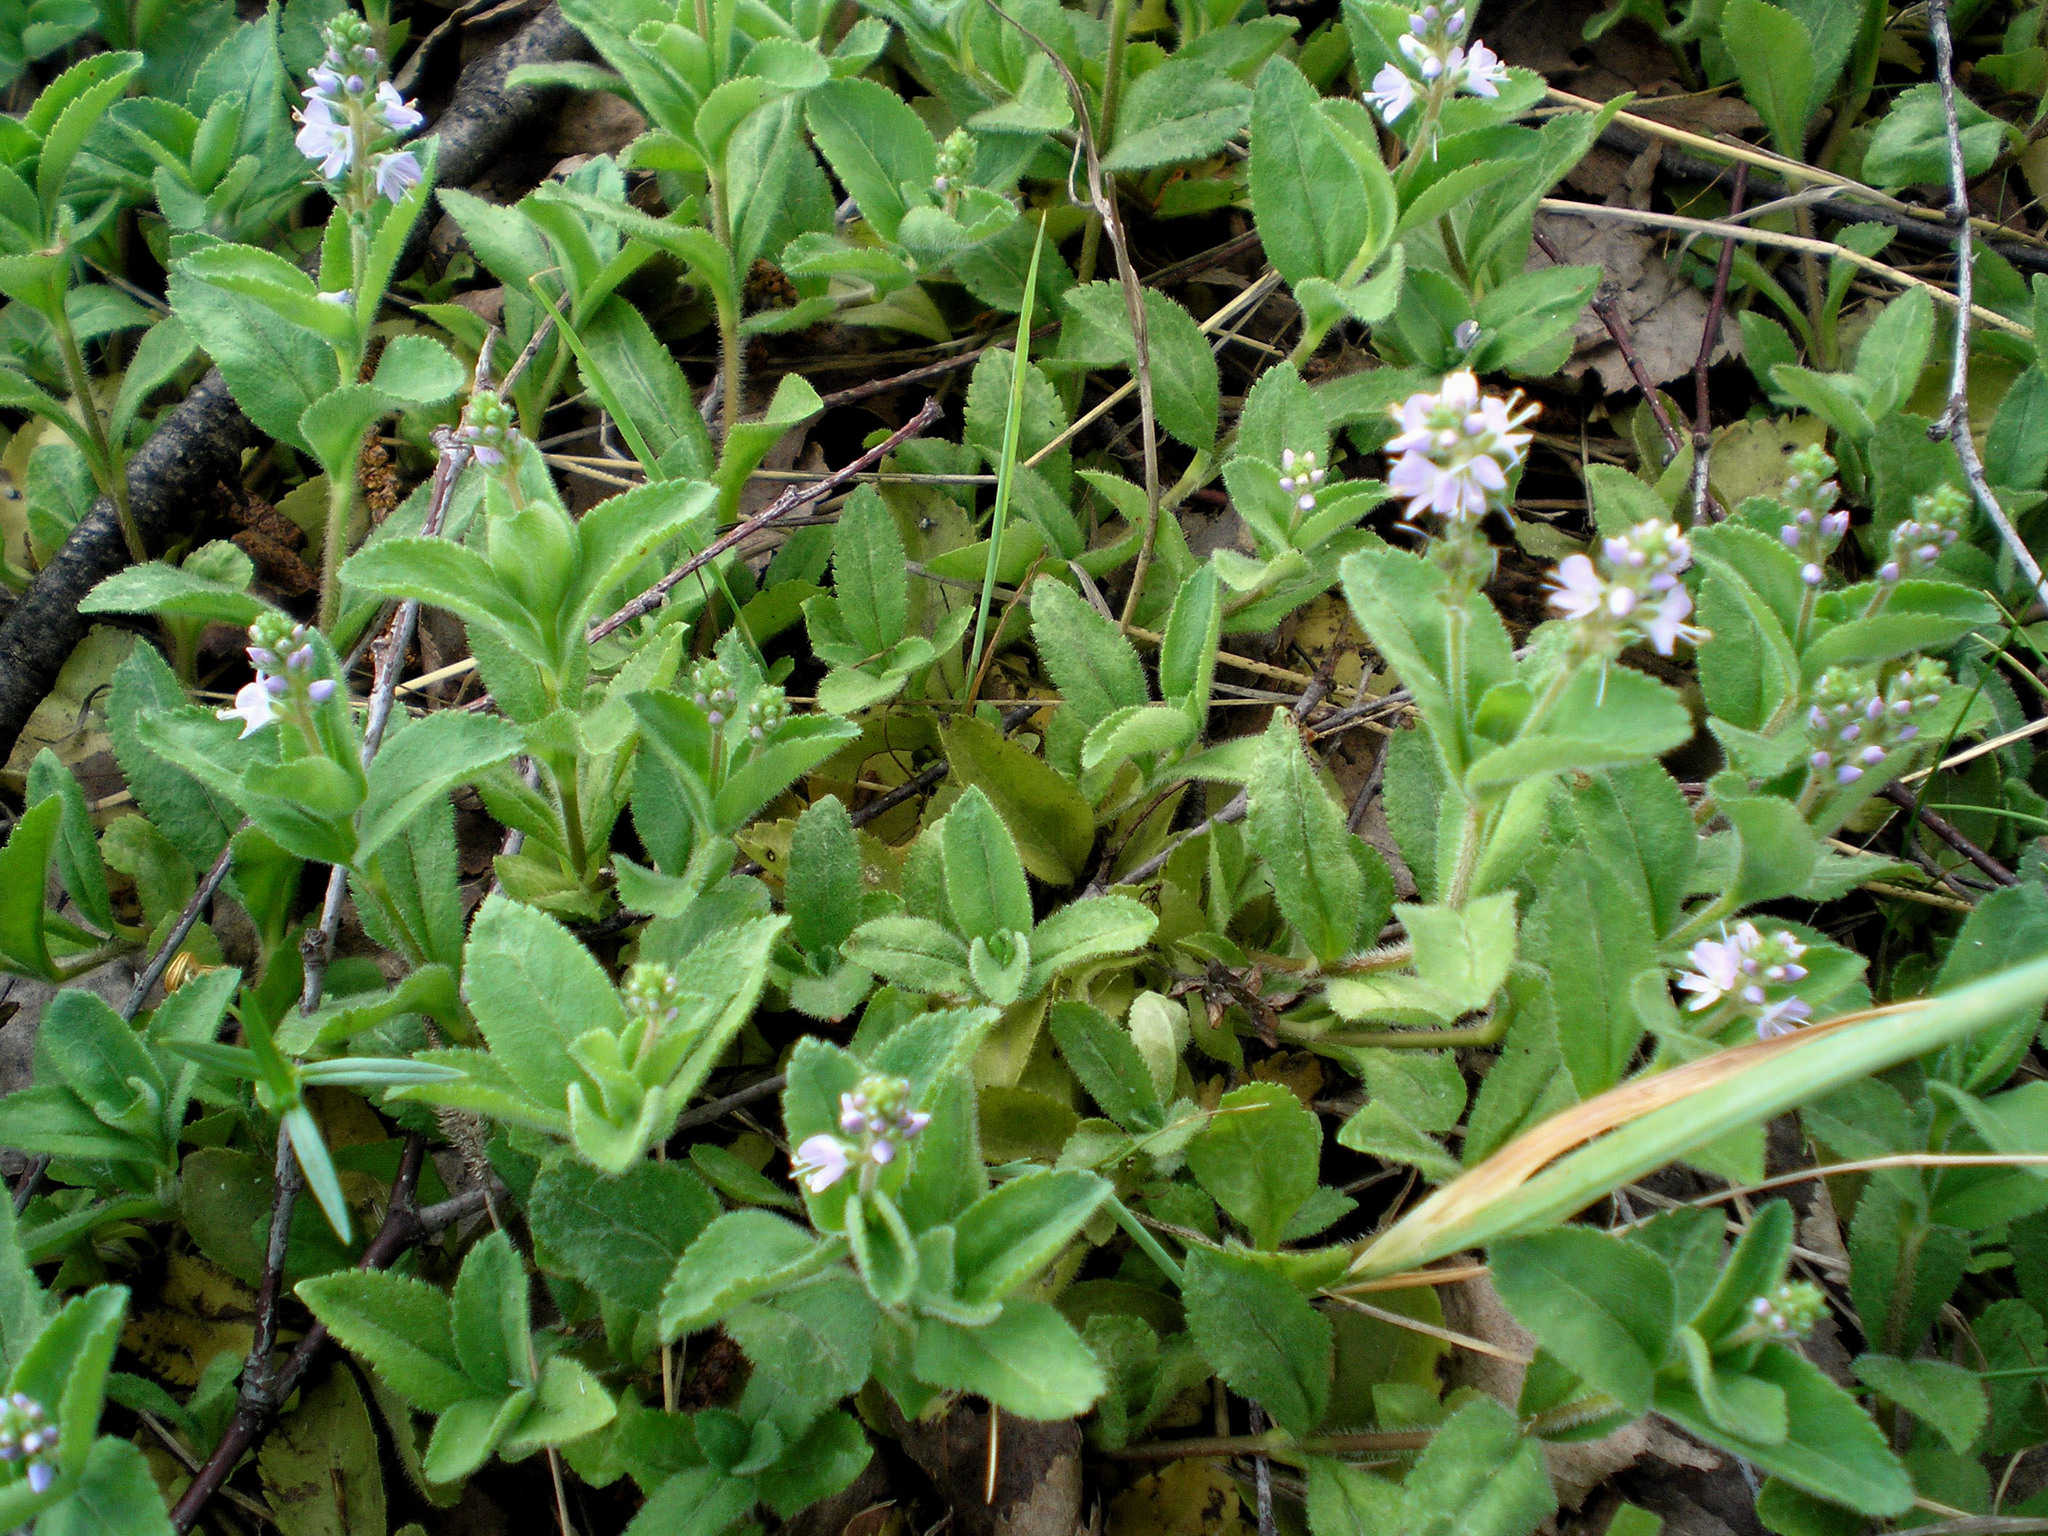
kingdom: Plantae
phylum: Tracheophyta
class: Magnoliopsida
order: Lamiales
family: Plantaginaceae
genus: Veronica
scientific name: Veronica officinalis
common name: Common speedwell
